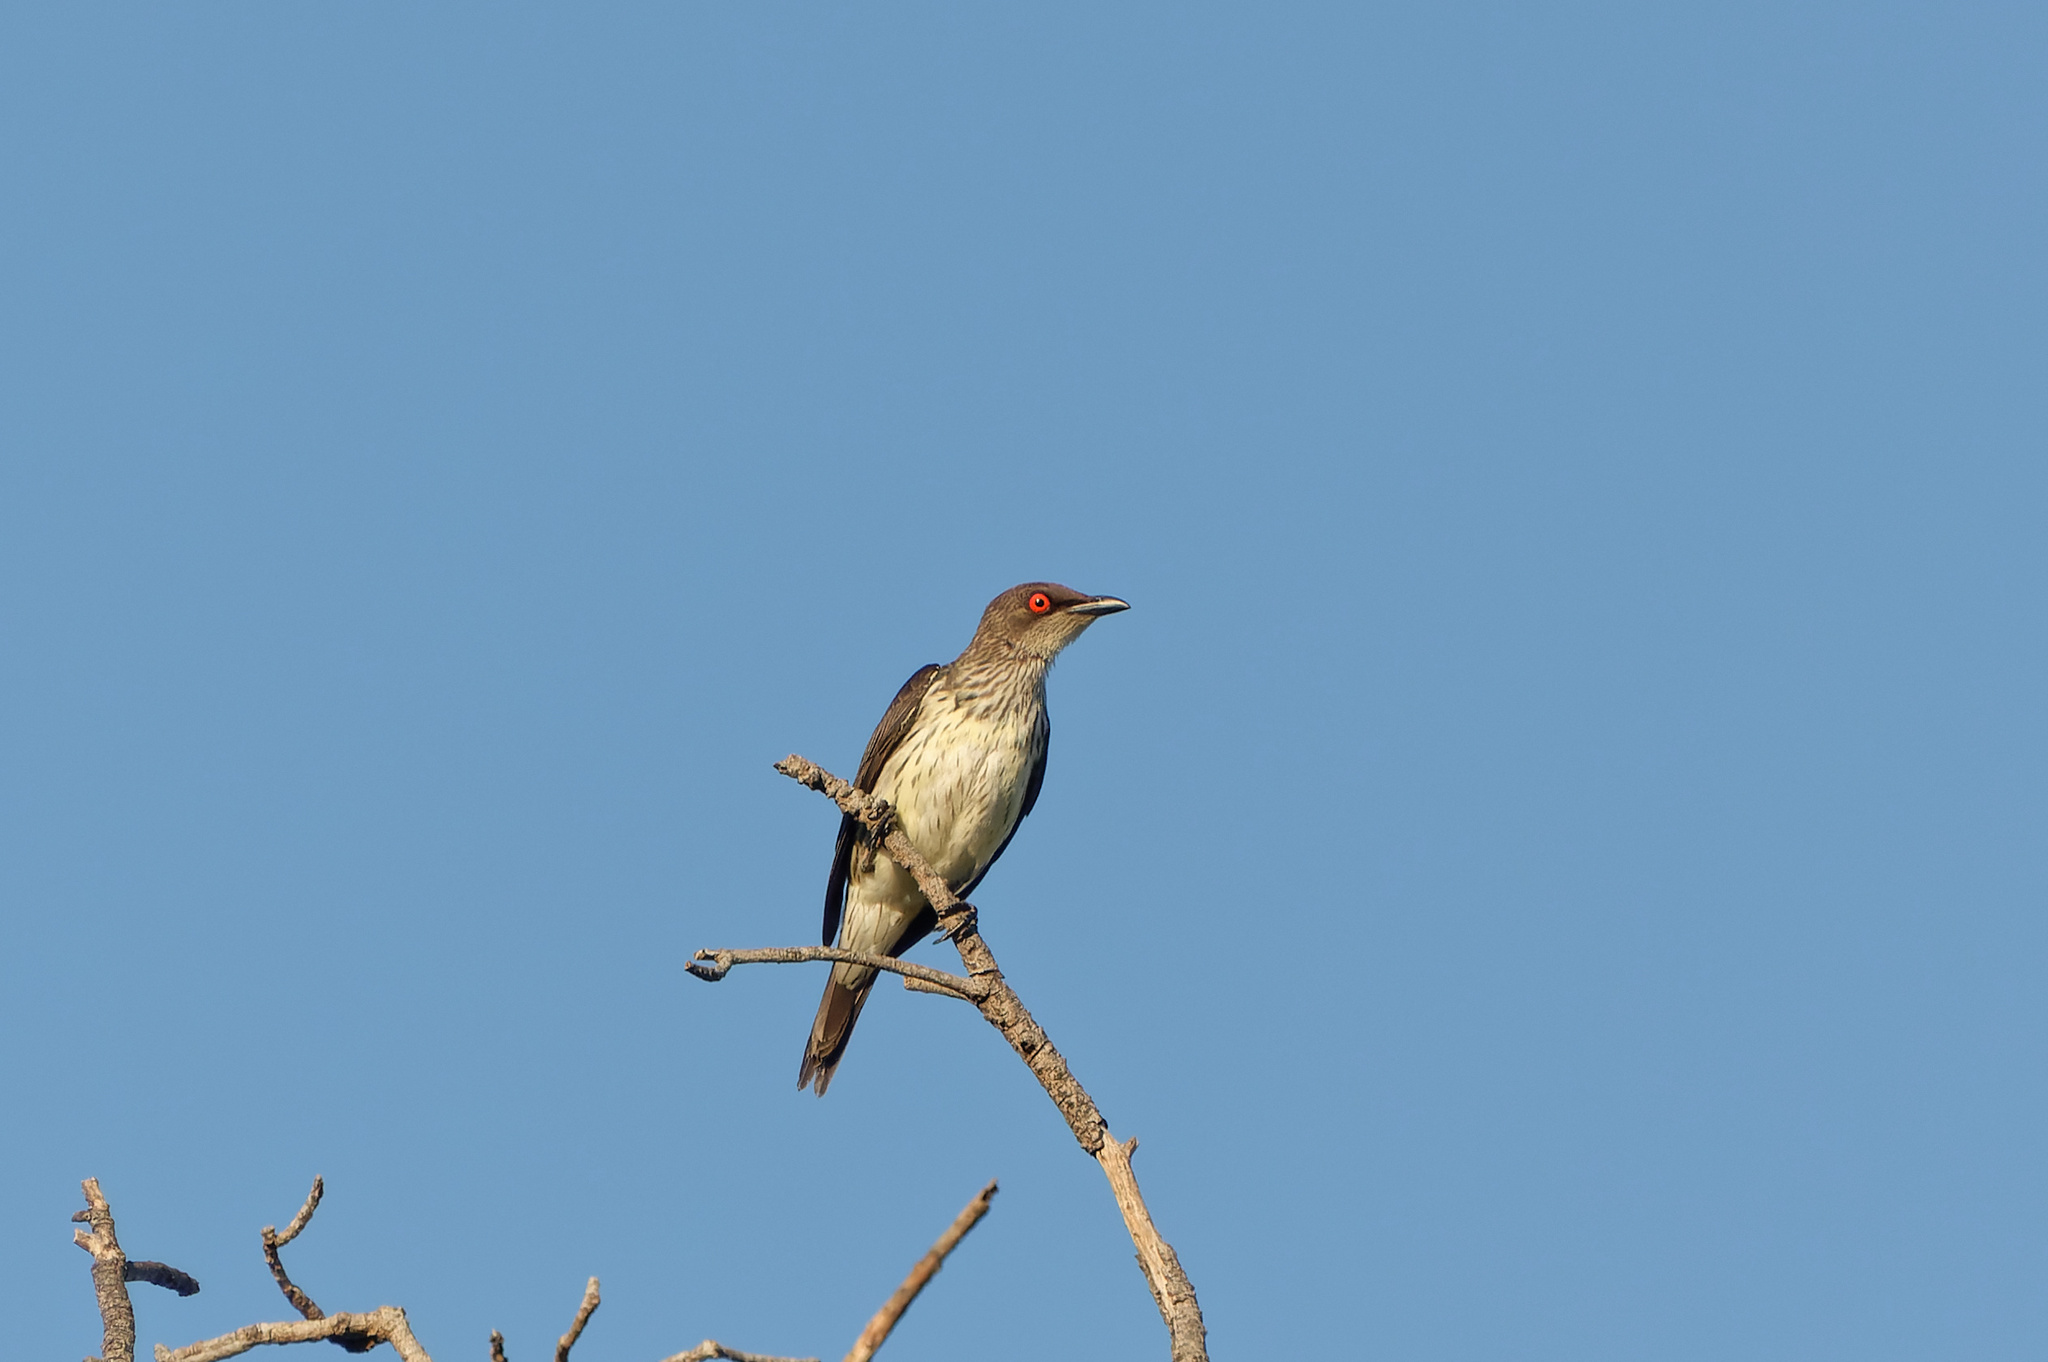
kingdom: Animalia
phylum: Chordata
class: Aves
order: Passeriformes
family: Sturnidae
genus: Aplonis
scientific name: Aplonis metallica
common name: Metallic starling
